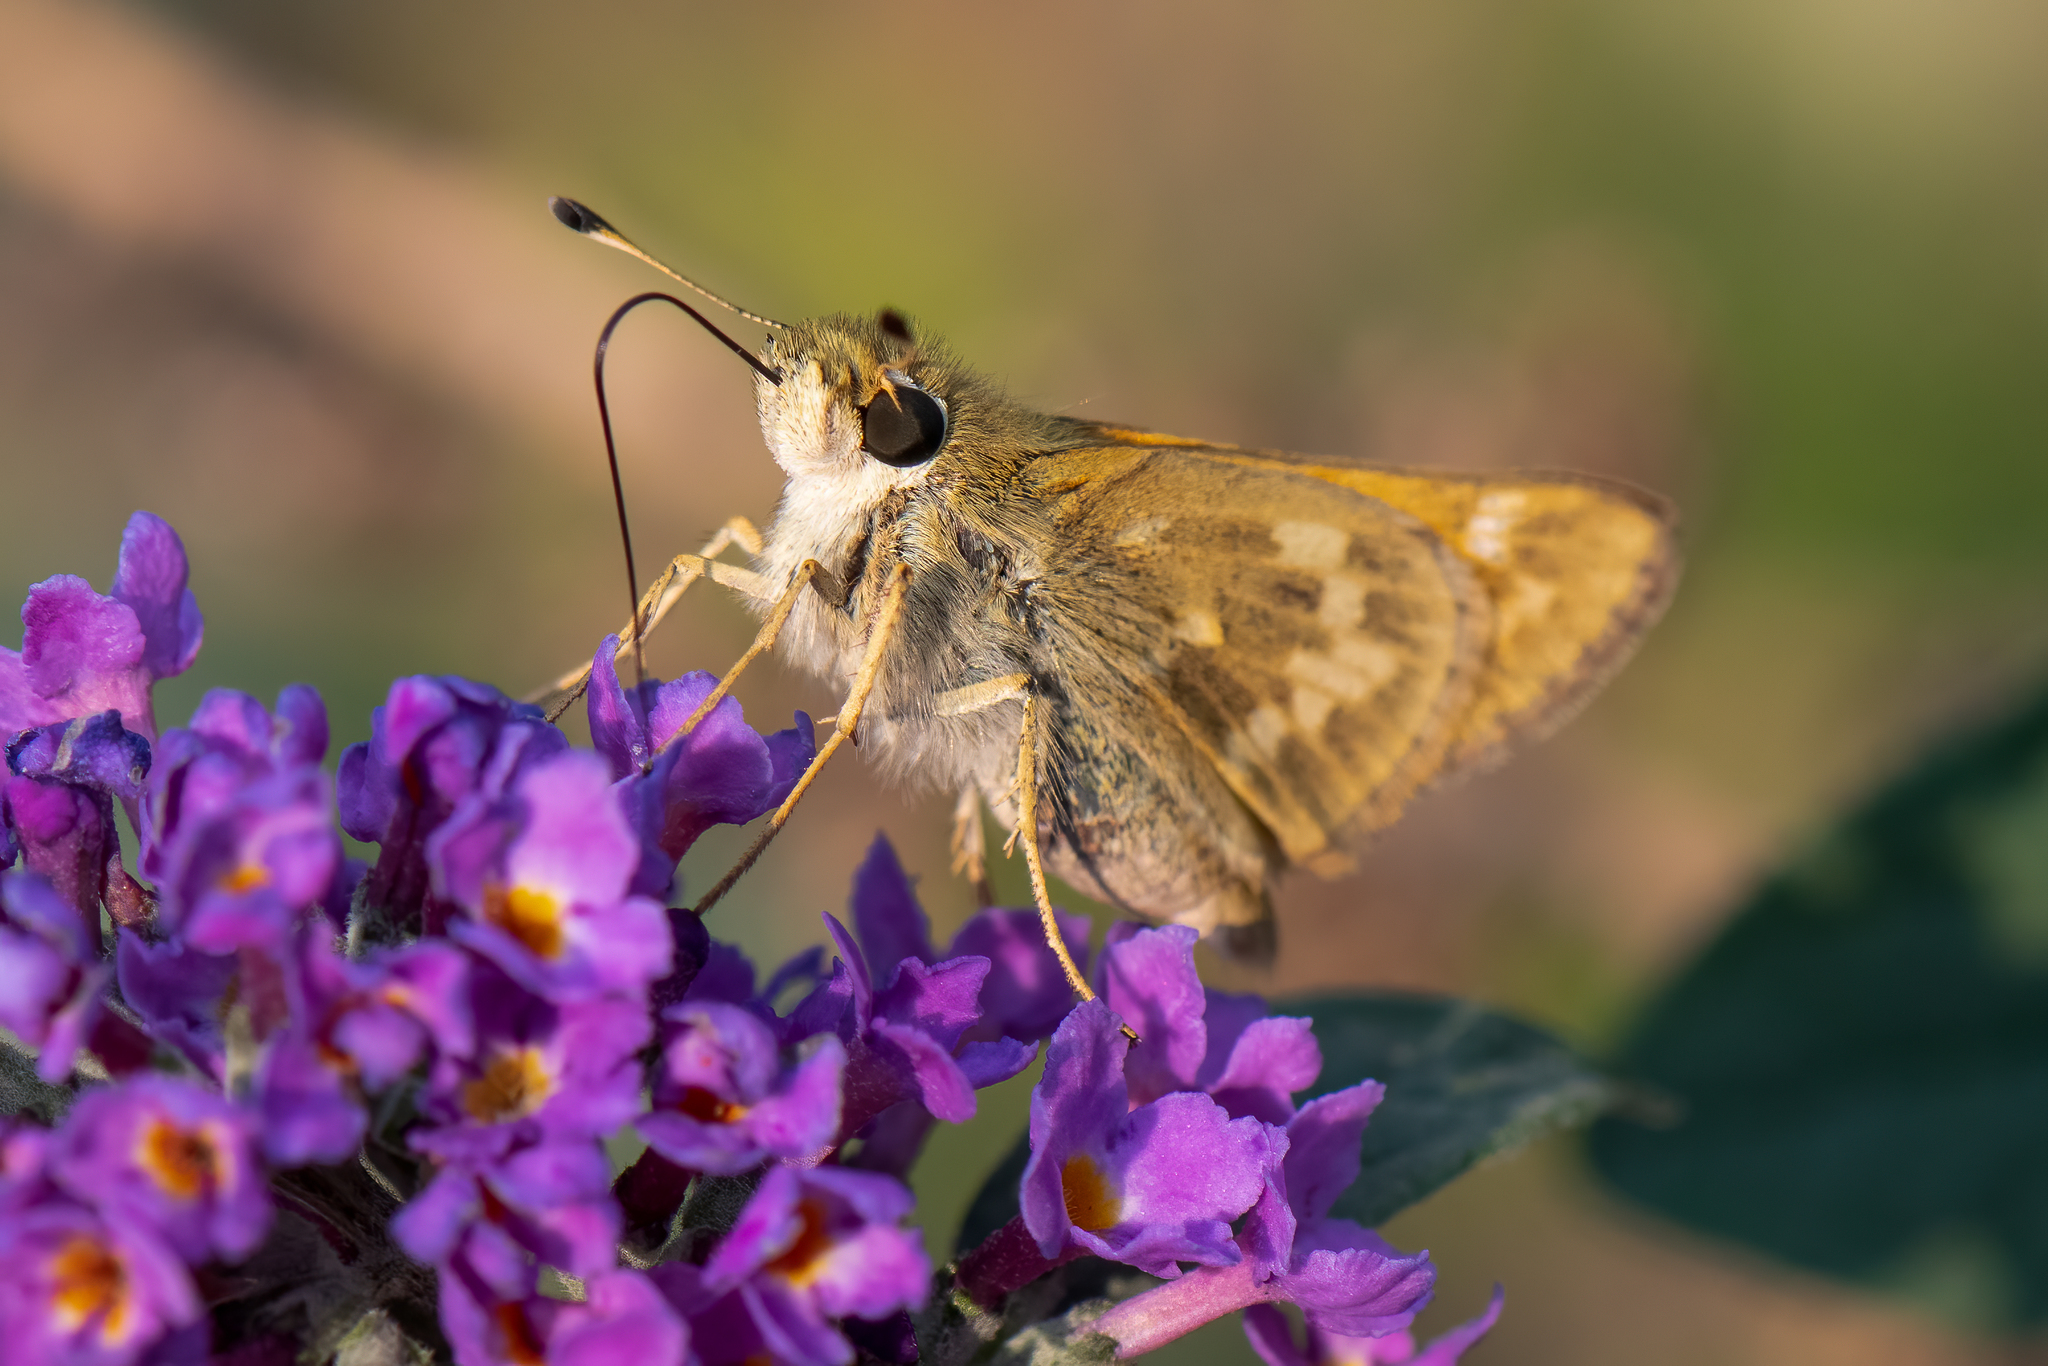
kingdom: Animalia
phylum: Arthropoda
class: Insecta
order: Lepidoptera
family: Hesperiidae
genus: Atalopedes
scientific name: Atalopedes campestris
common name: Sachem
